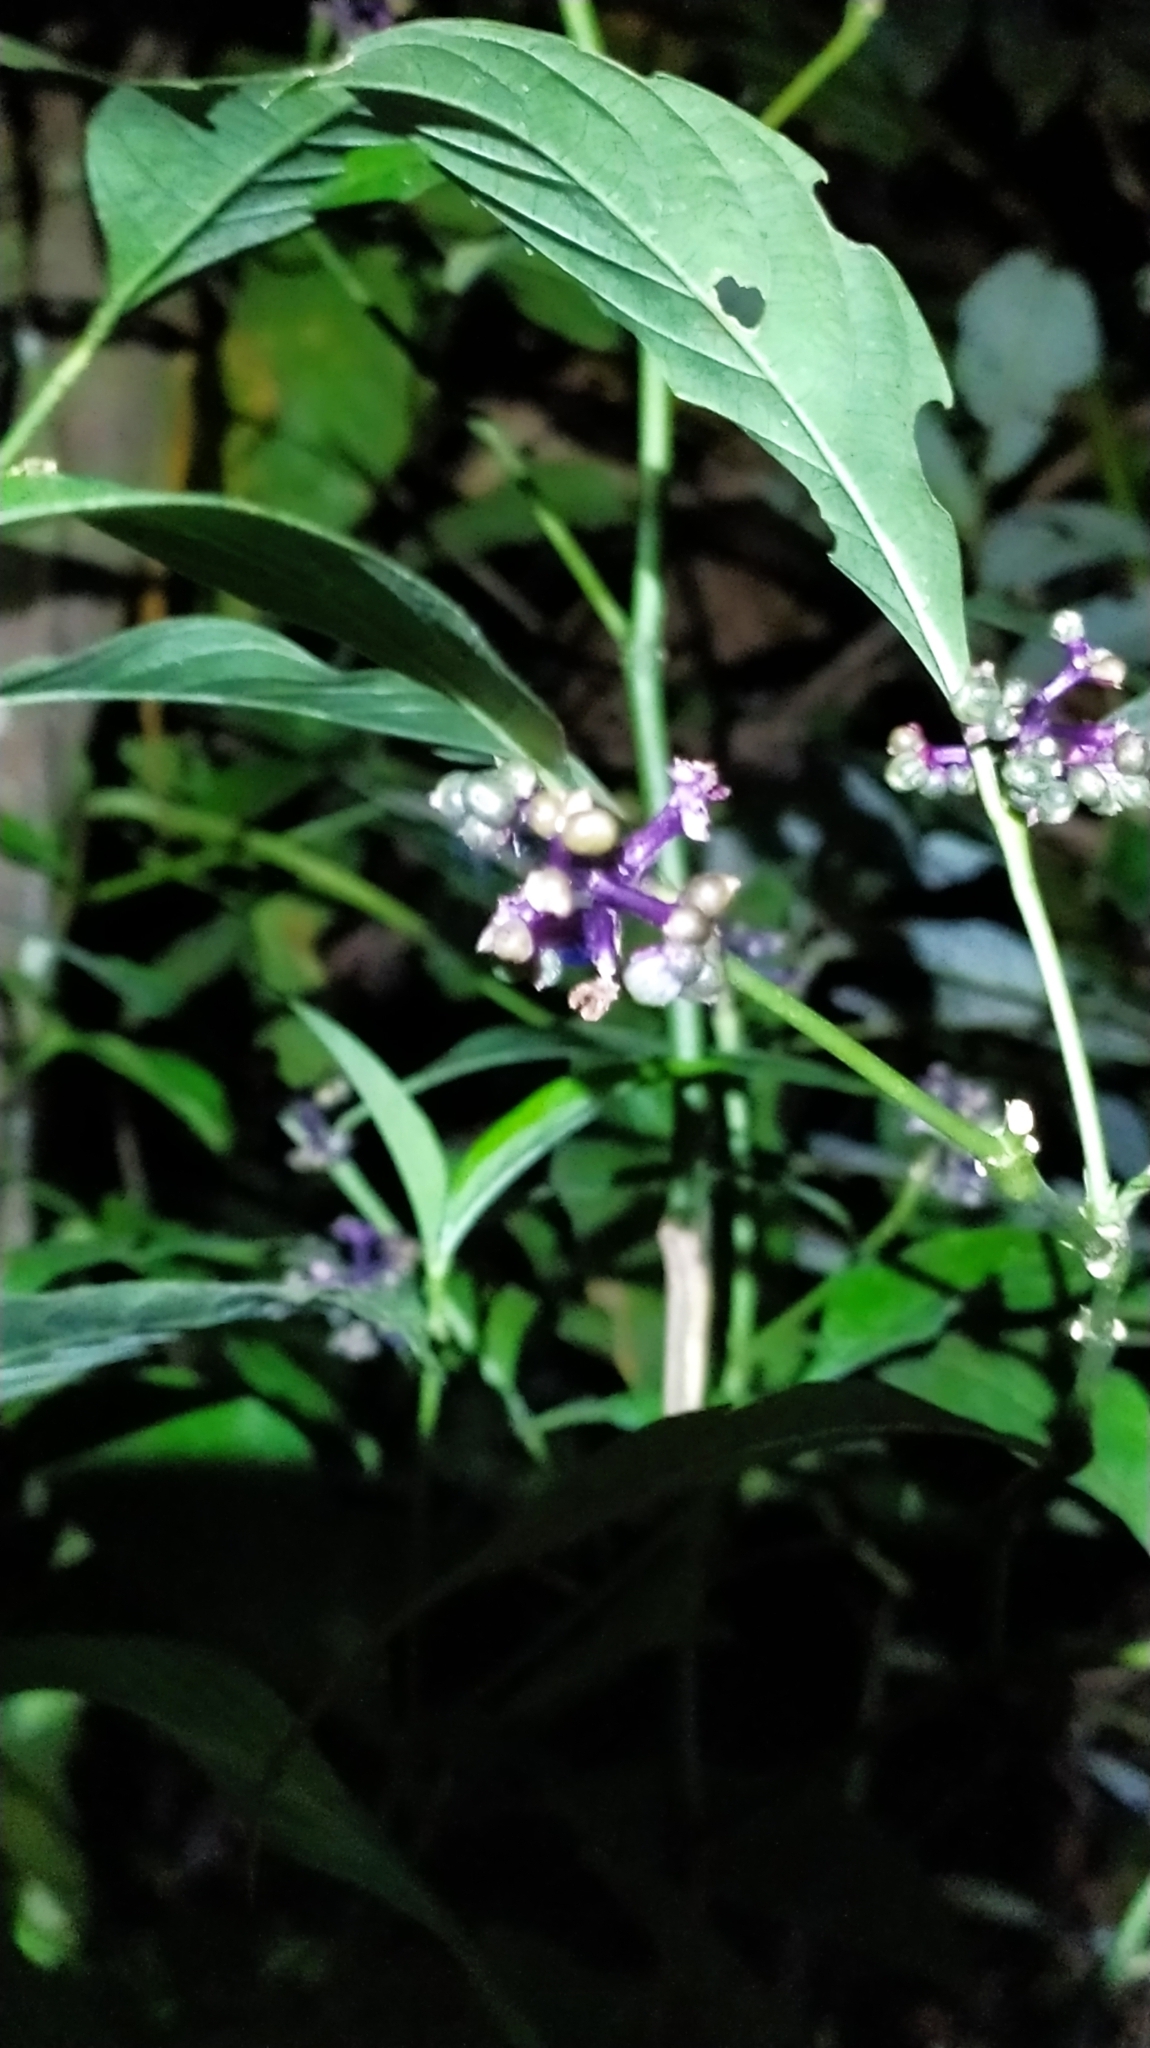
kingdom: Plantae
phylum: Tracheophyta
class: Magnoliopsida
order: Gentianales
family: Rubiaceae
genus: Palicourea
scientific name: Palicourea gracilenta
